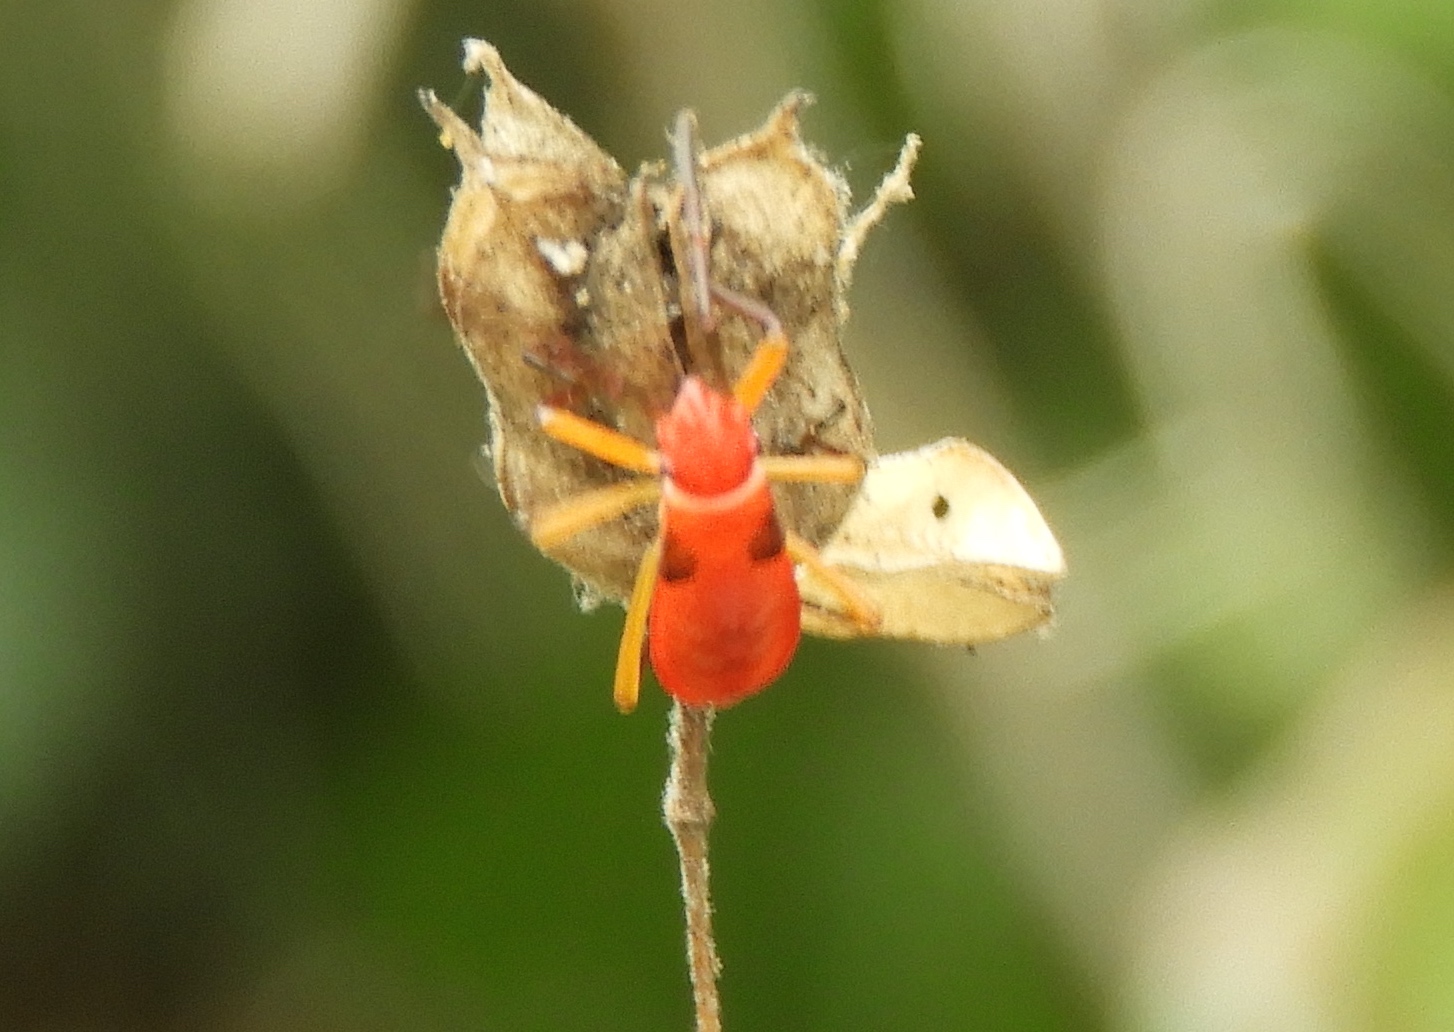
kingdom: Animalia
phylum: Arthropoda
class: Insecta
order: Hemiptera
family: Pyrrhocoridae
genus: Dysdercus
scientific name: Dysdercus
